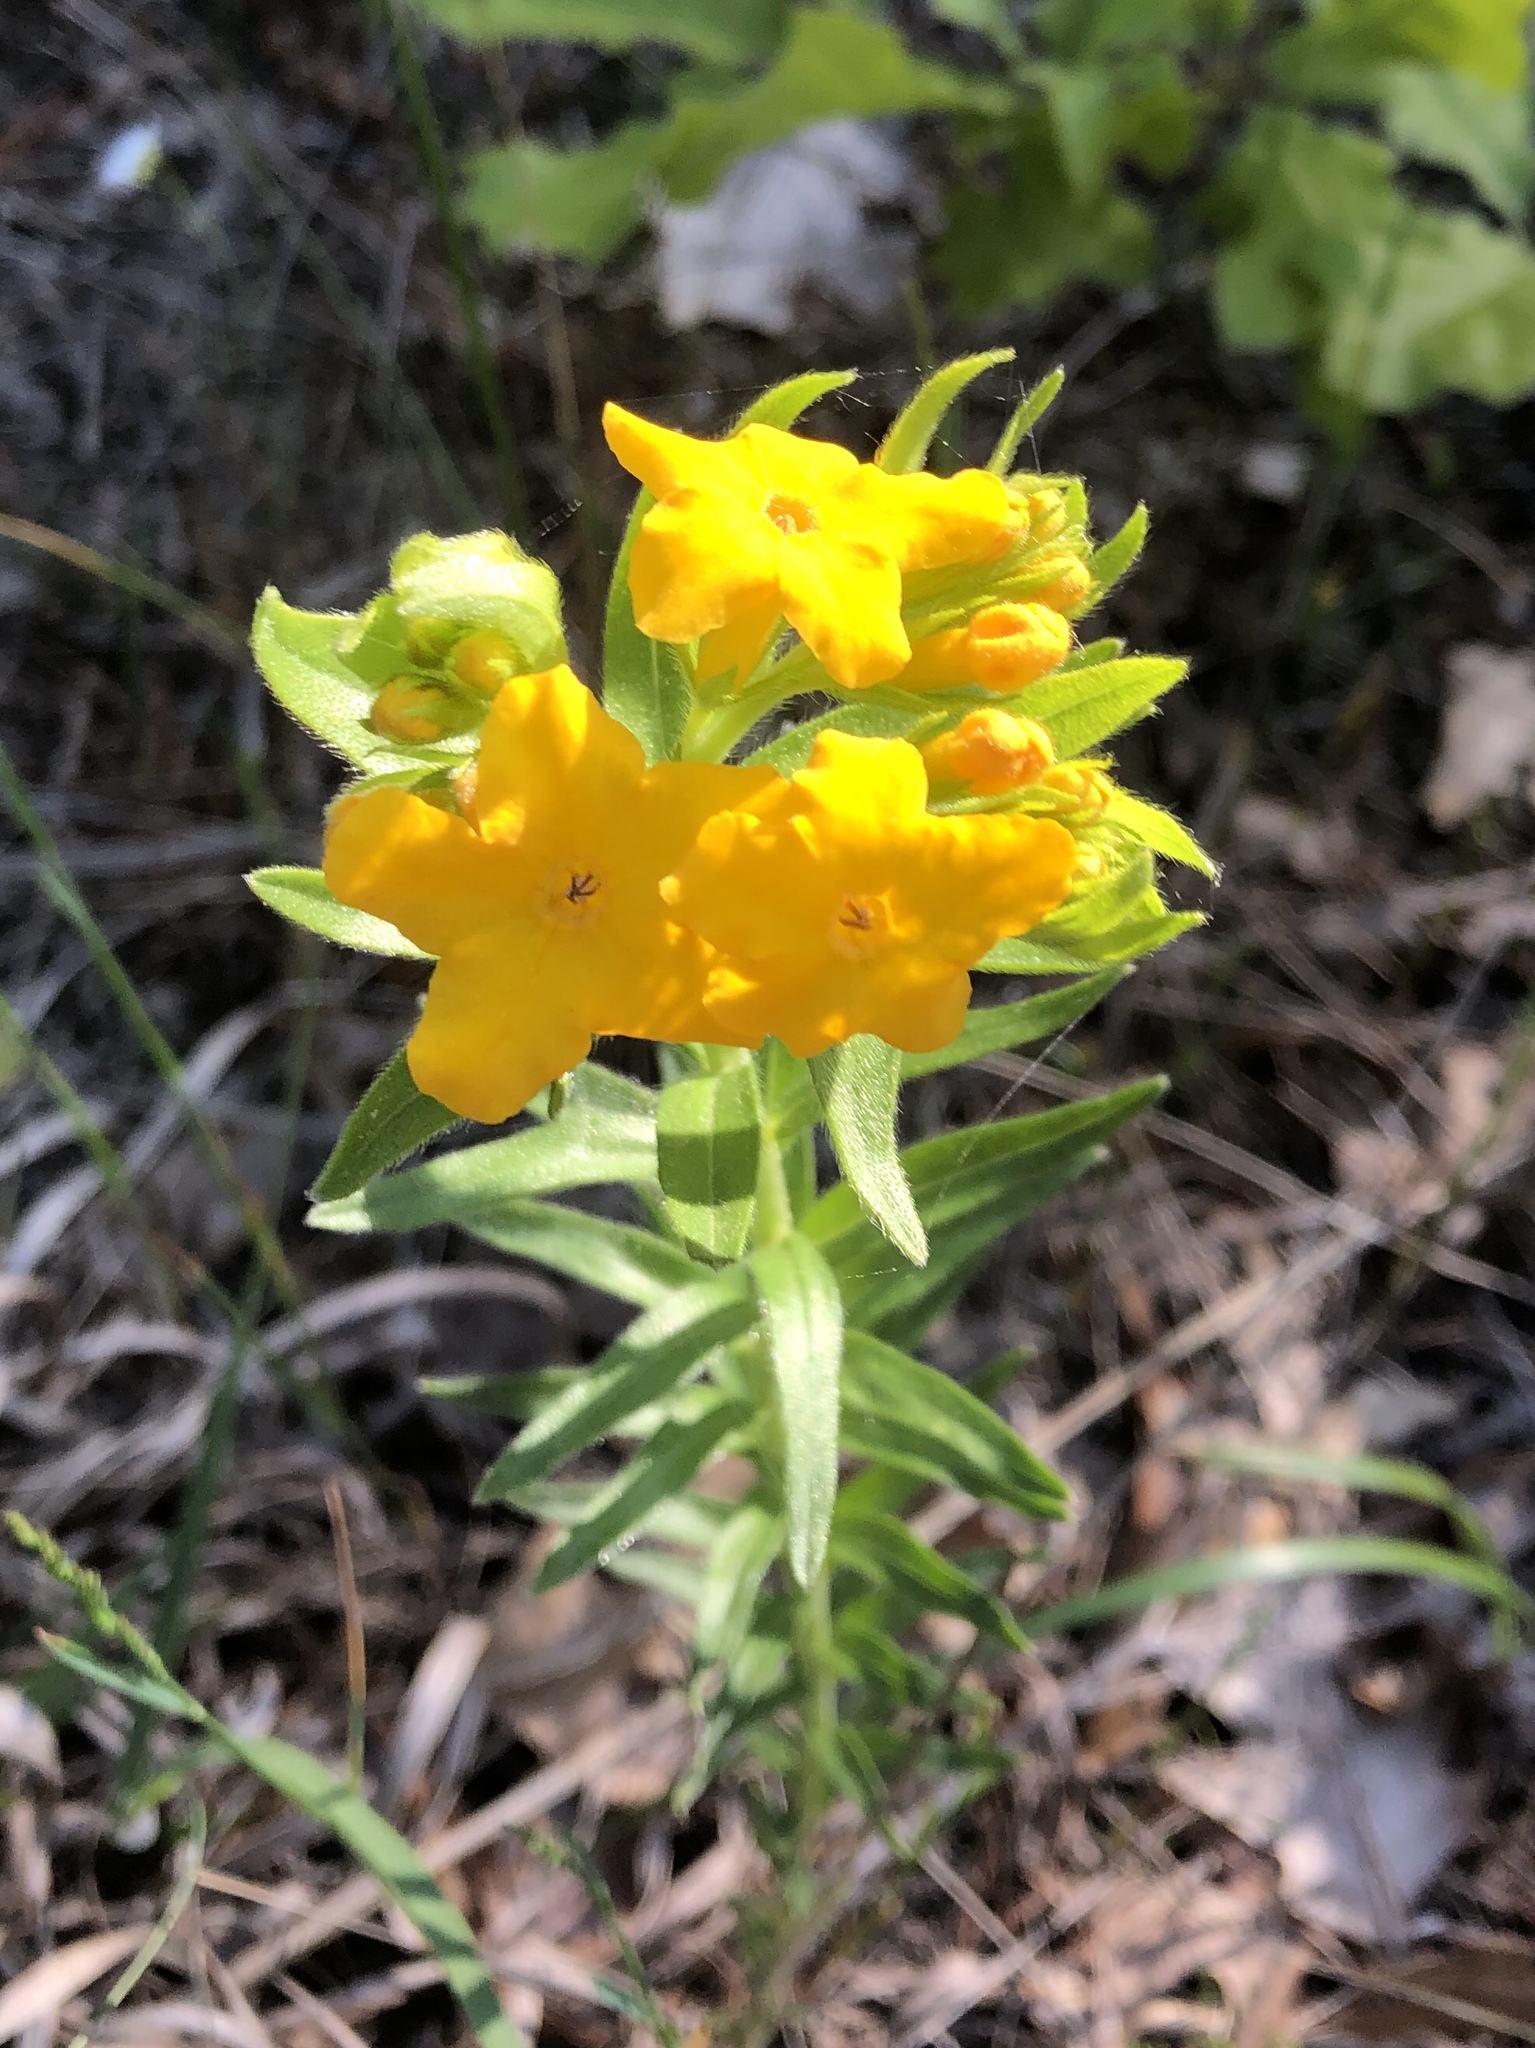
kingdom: Plantae
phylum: Tracheophyta
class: Magnoliopsida
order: Boraginales
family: Boraginaceae
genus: Lithospermum
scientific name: Lithospermum caroliniense
